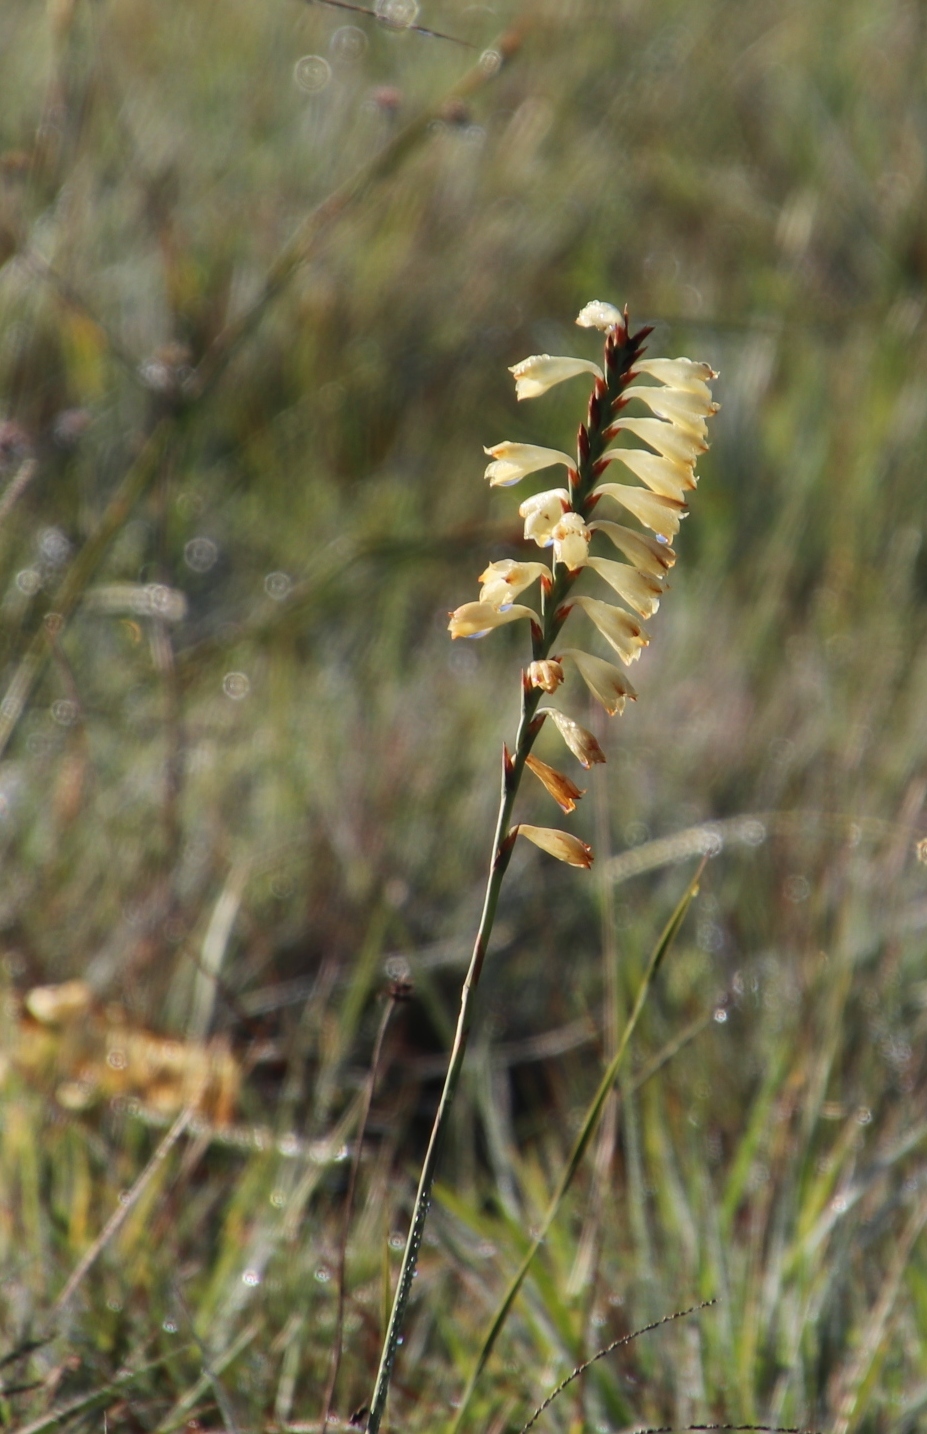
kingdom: Plantae
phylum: Tracheophyta
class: Liliopsida
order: Asparagales
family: Iridaceae
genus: Watsonia
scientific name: Watsonia watsonioides
